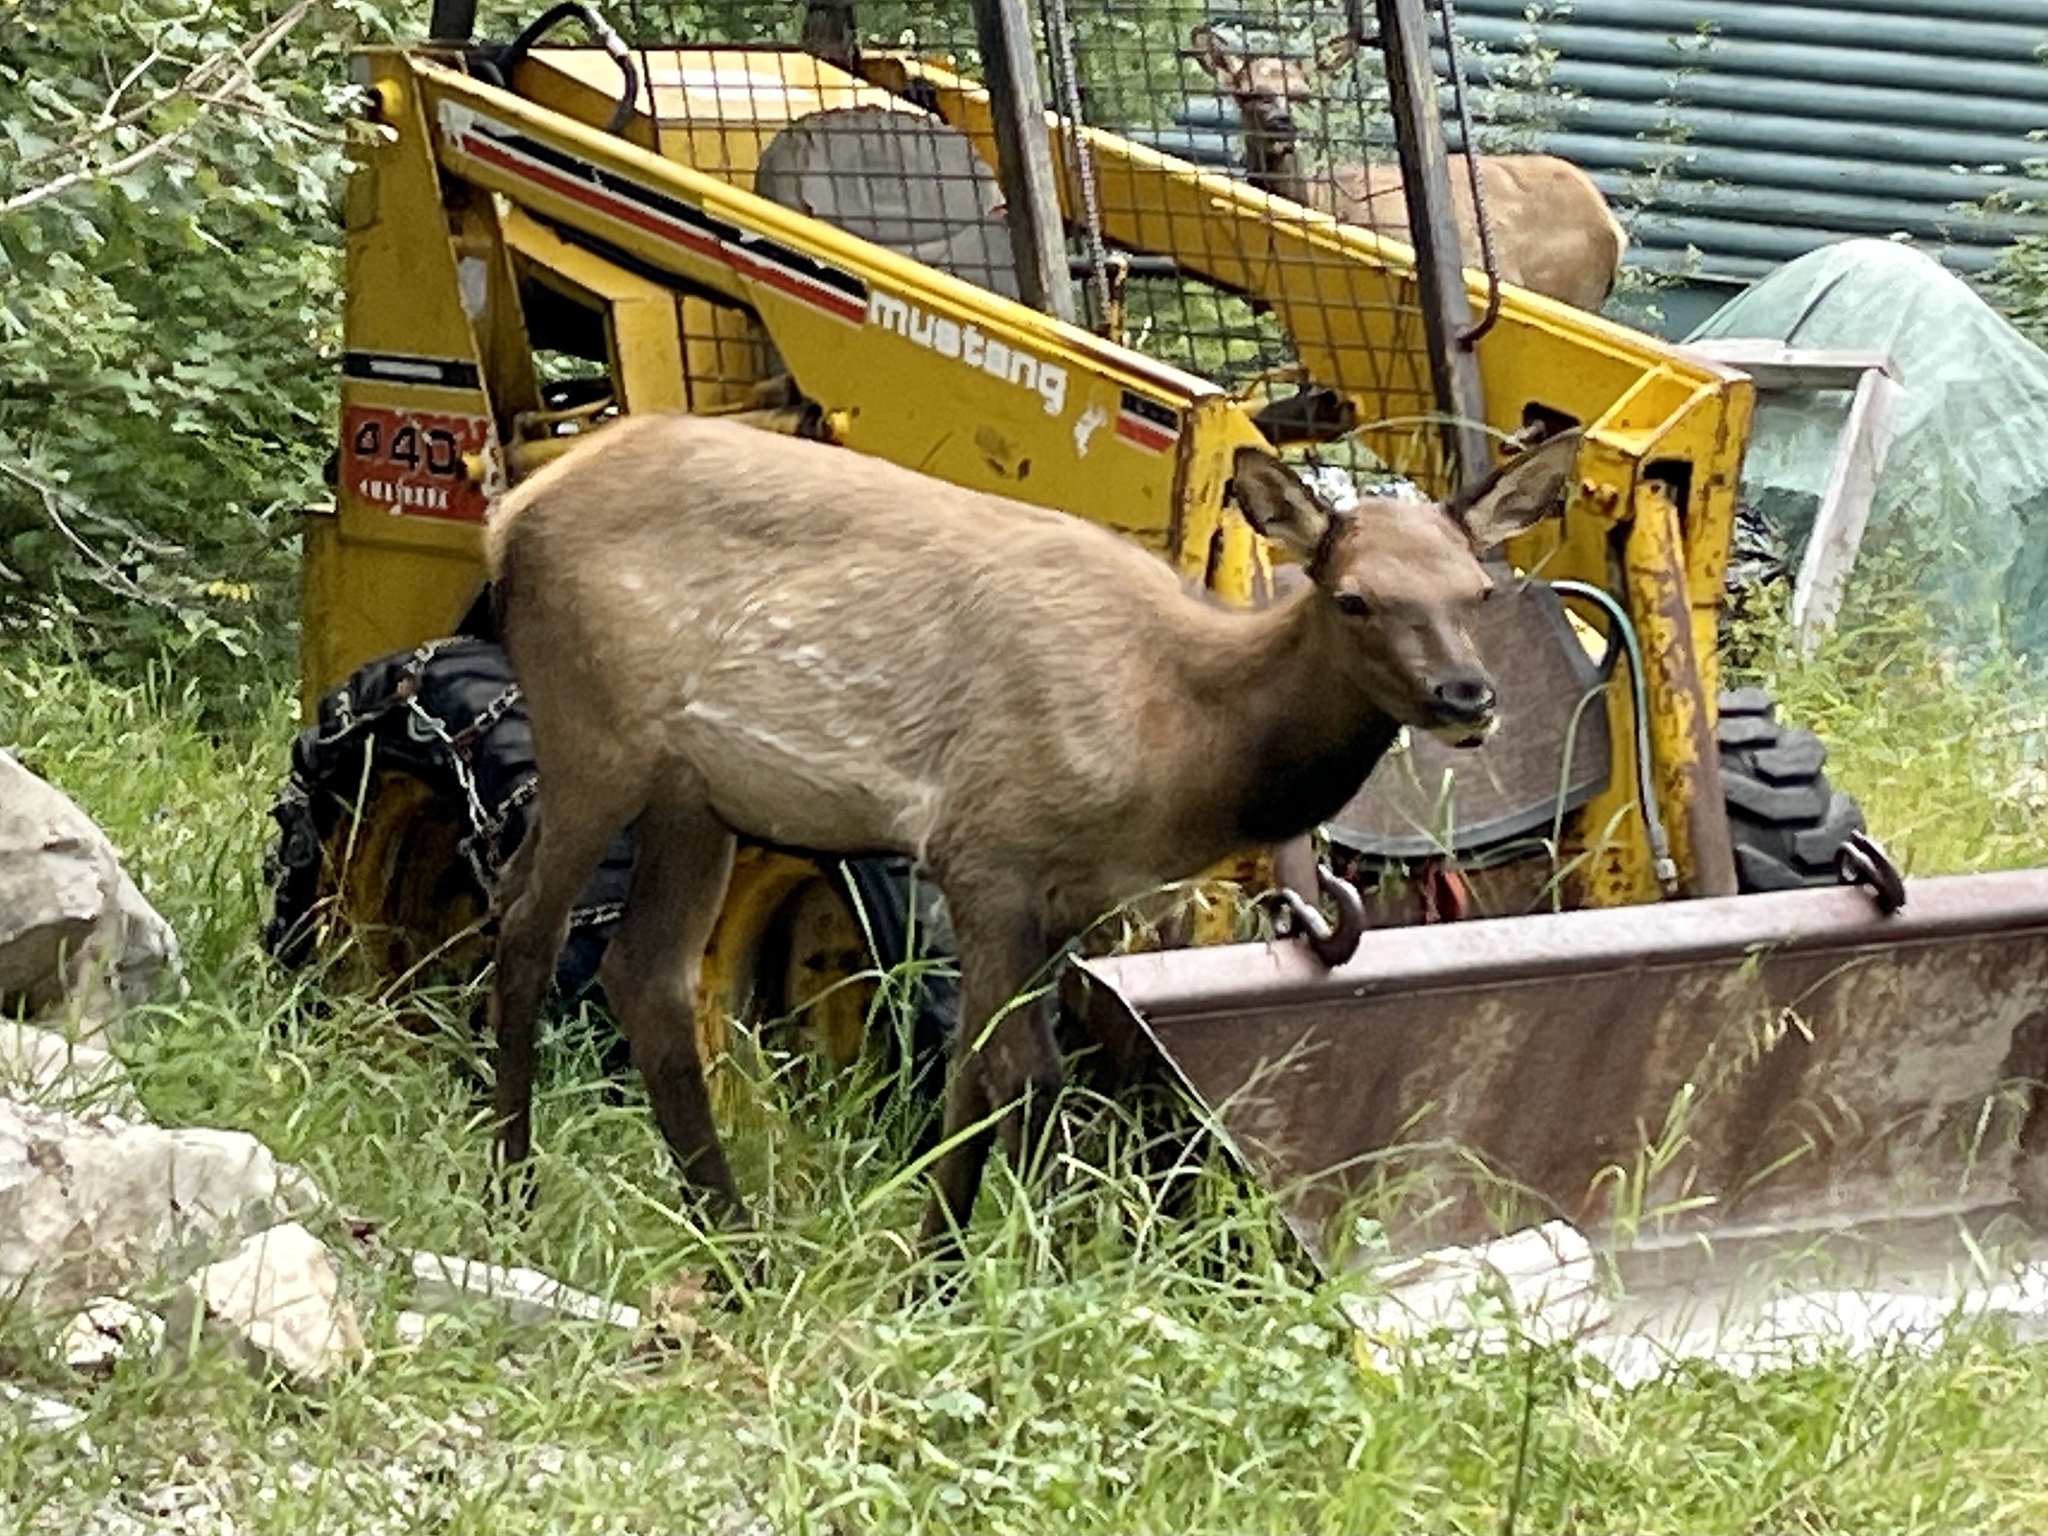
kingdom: Animalia
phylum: Chordata
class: Mammalia
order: Artiodactyla
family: Cervidae
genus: Cervus
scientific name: Cervus elaphus
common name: Red deer
